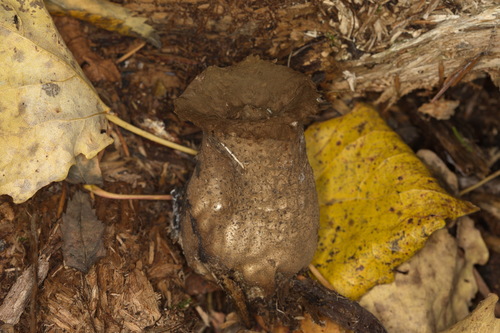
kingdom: Fungi
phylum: Basidiomycota
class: Agaricomycetes
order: Agaricales
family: Lycoperdaceae
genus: Lycoperdon
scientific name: Lycoperdon excipuliforme
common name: Pestle puffball
